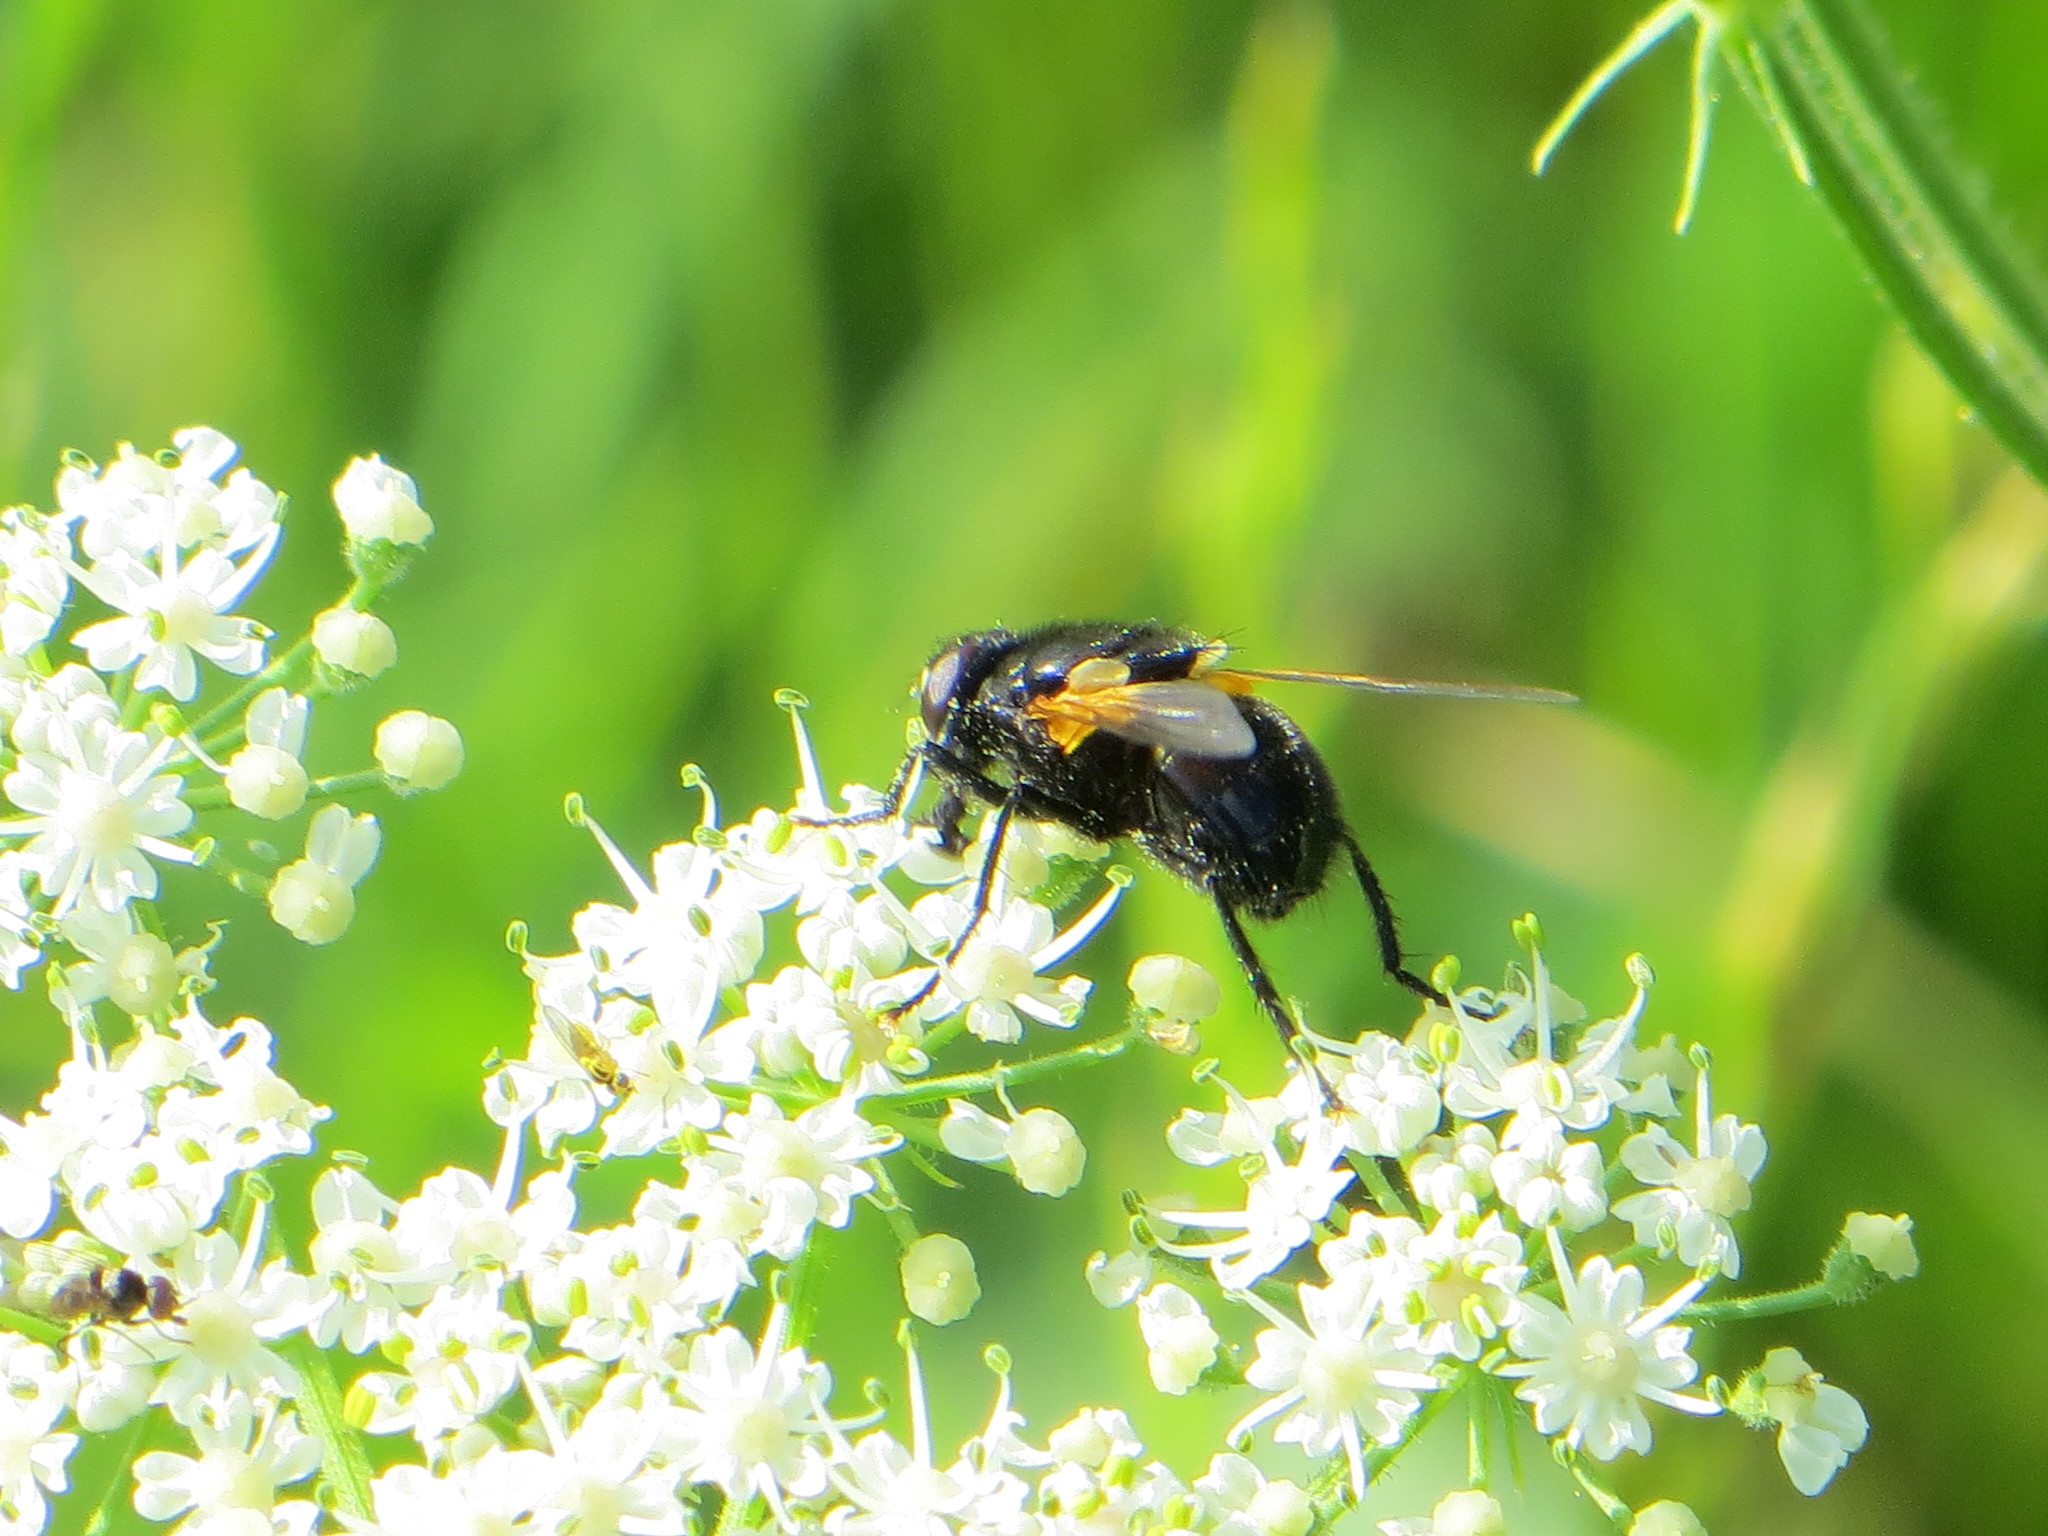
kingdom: Animalia
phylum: Arthropoda
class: Insecta
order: Diptera
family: Muscidae
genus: Mesembrina
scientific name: Mesembrina meridiana
